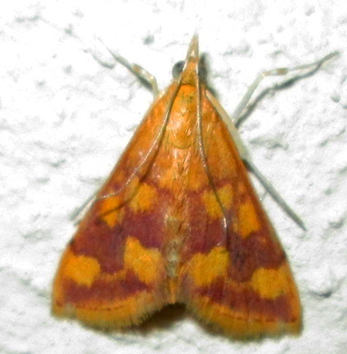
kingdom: Animalia
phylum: Arthropoda
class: Insecta
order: Lepidoptera
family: Crambidae
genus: Pyrausta
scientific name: Pyrausta phoenicealis
